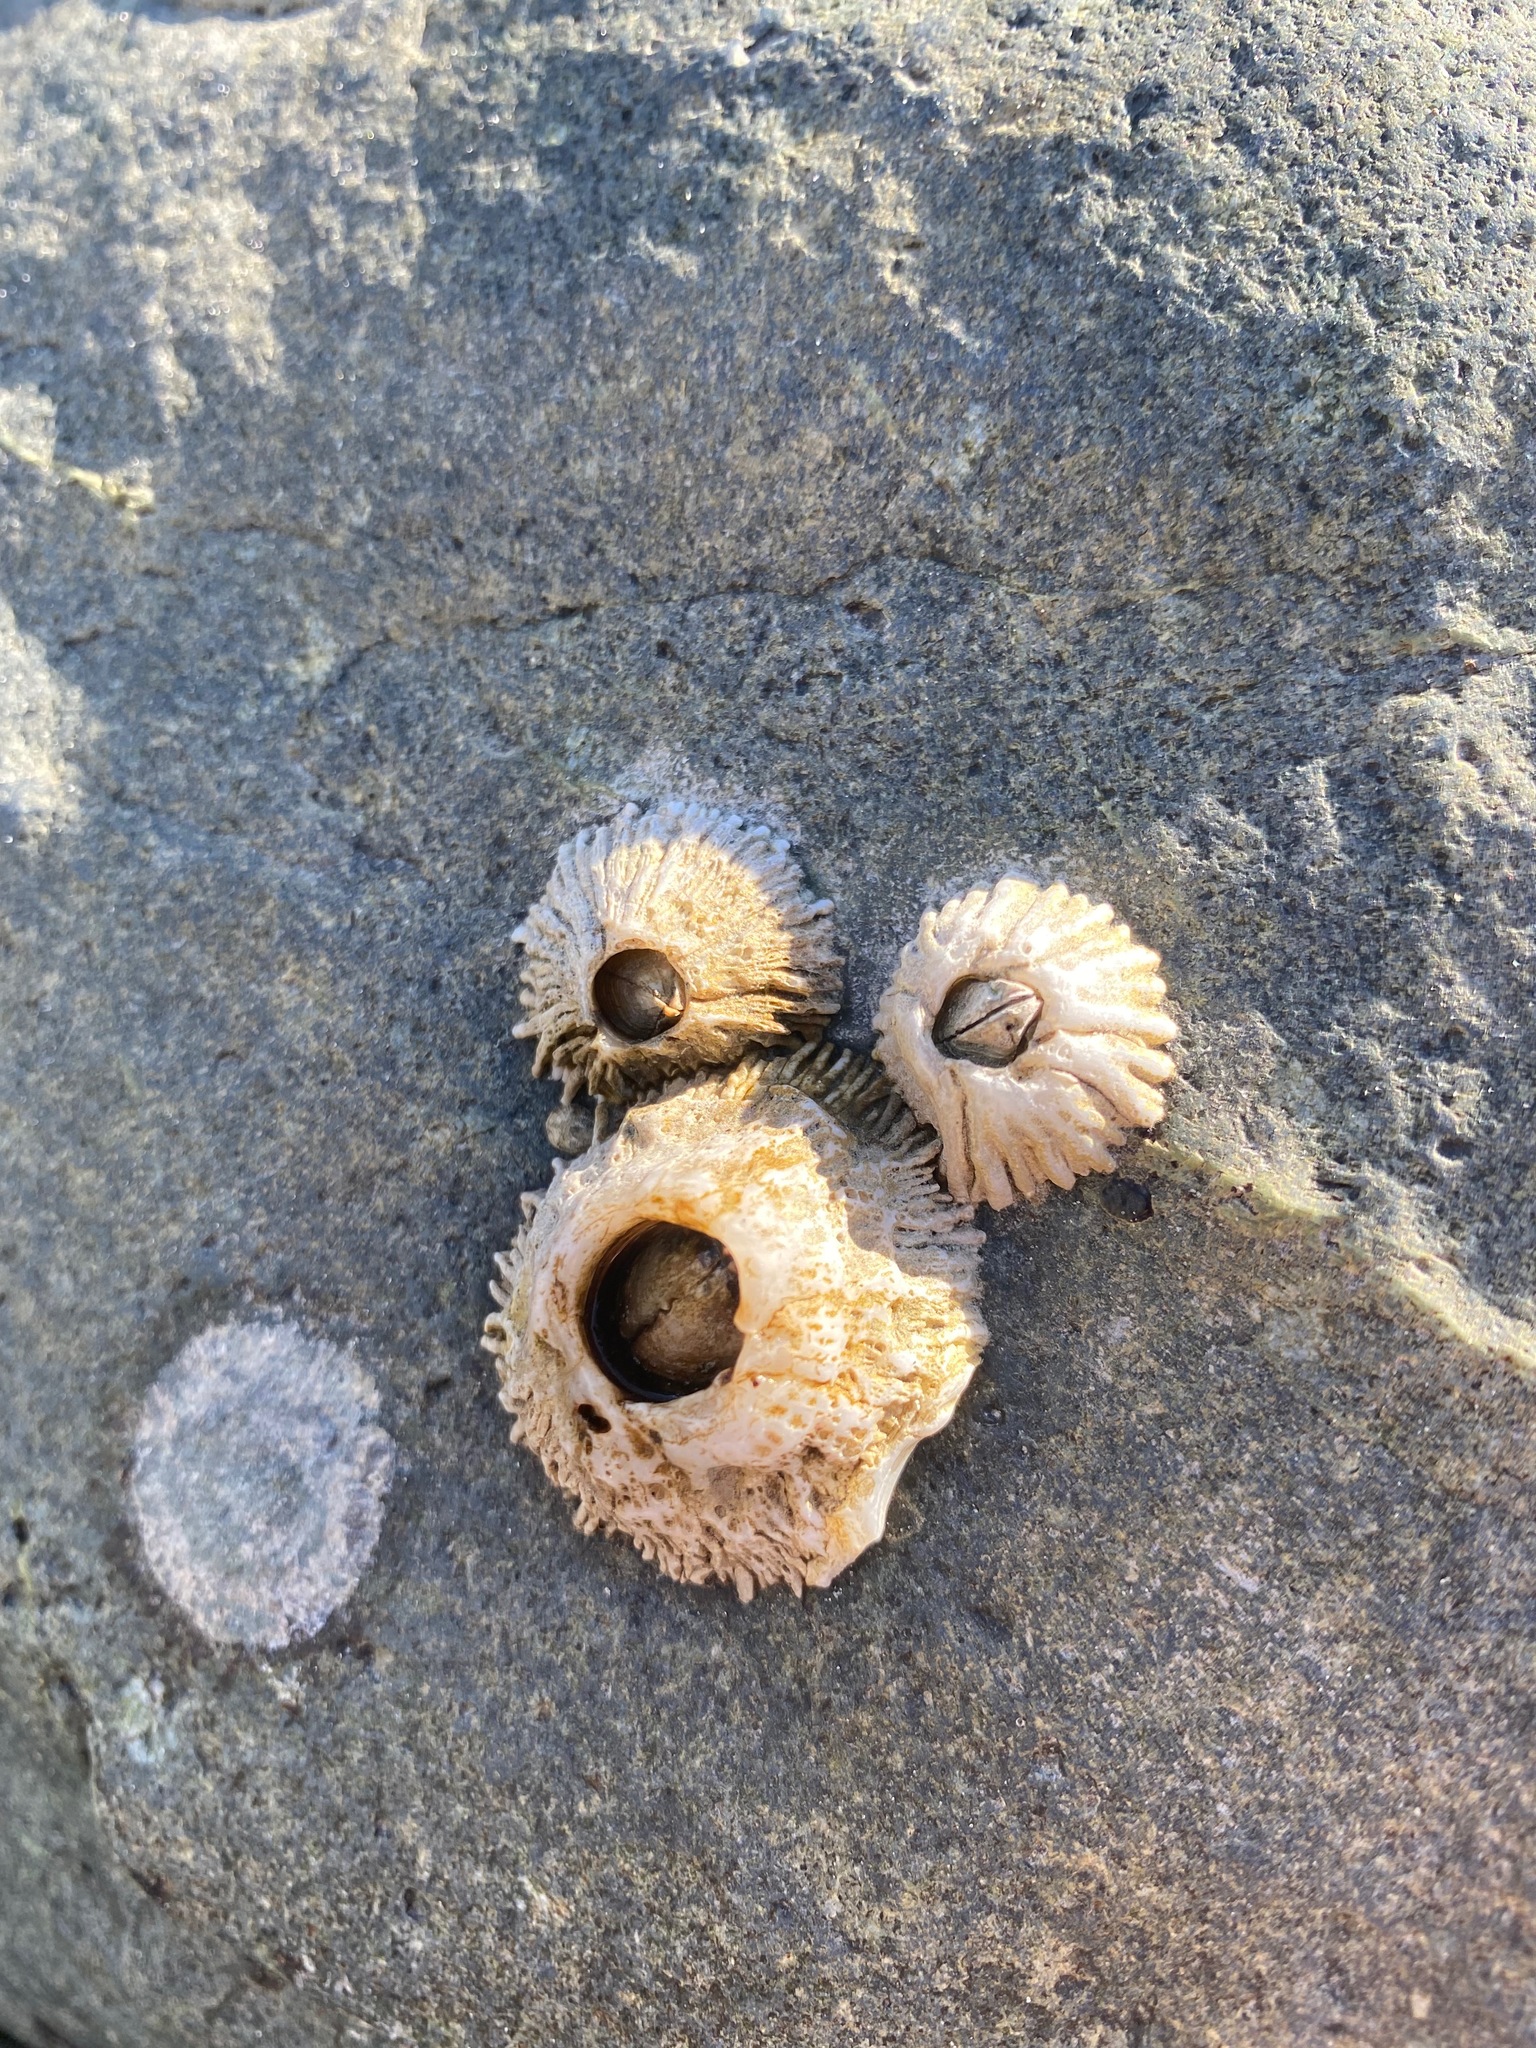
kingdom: Animalia
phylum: Arthropoda
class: Maxillopoda
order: Sessilia
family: Archaeobalanidae
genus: Semibalanus
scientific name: Semibalanus cariosus
